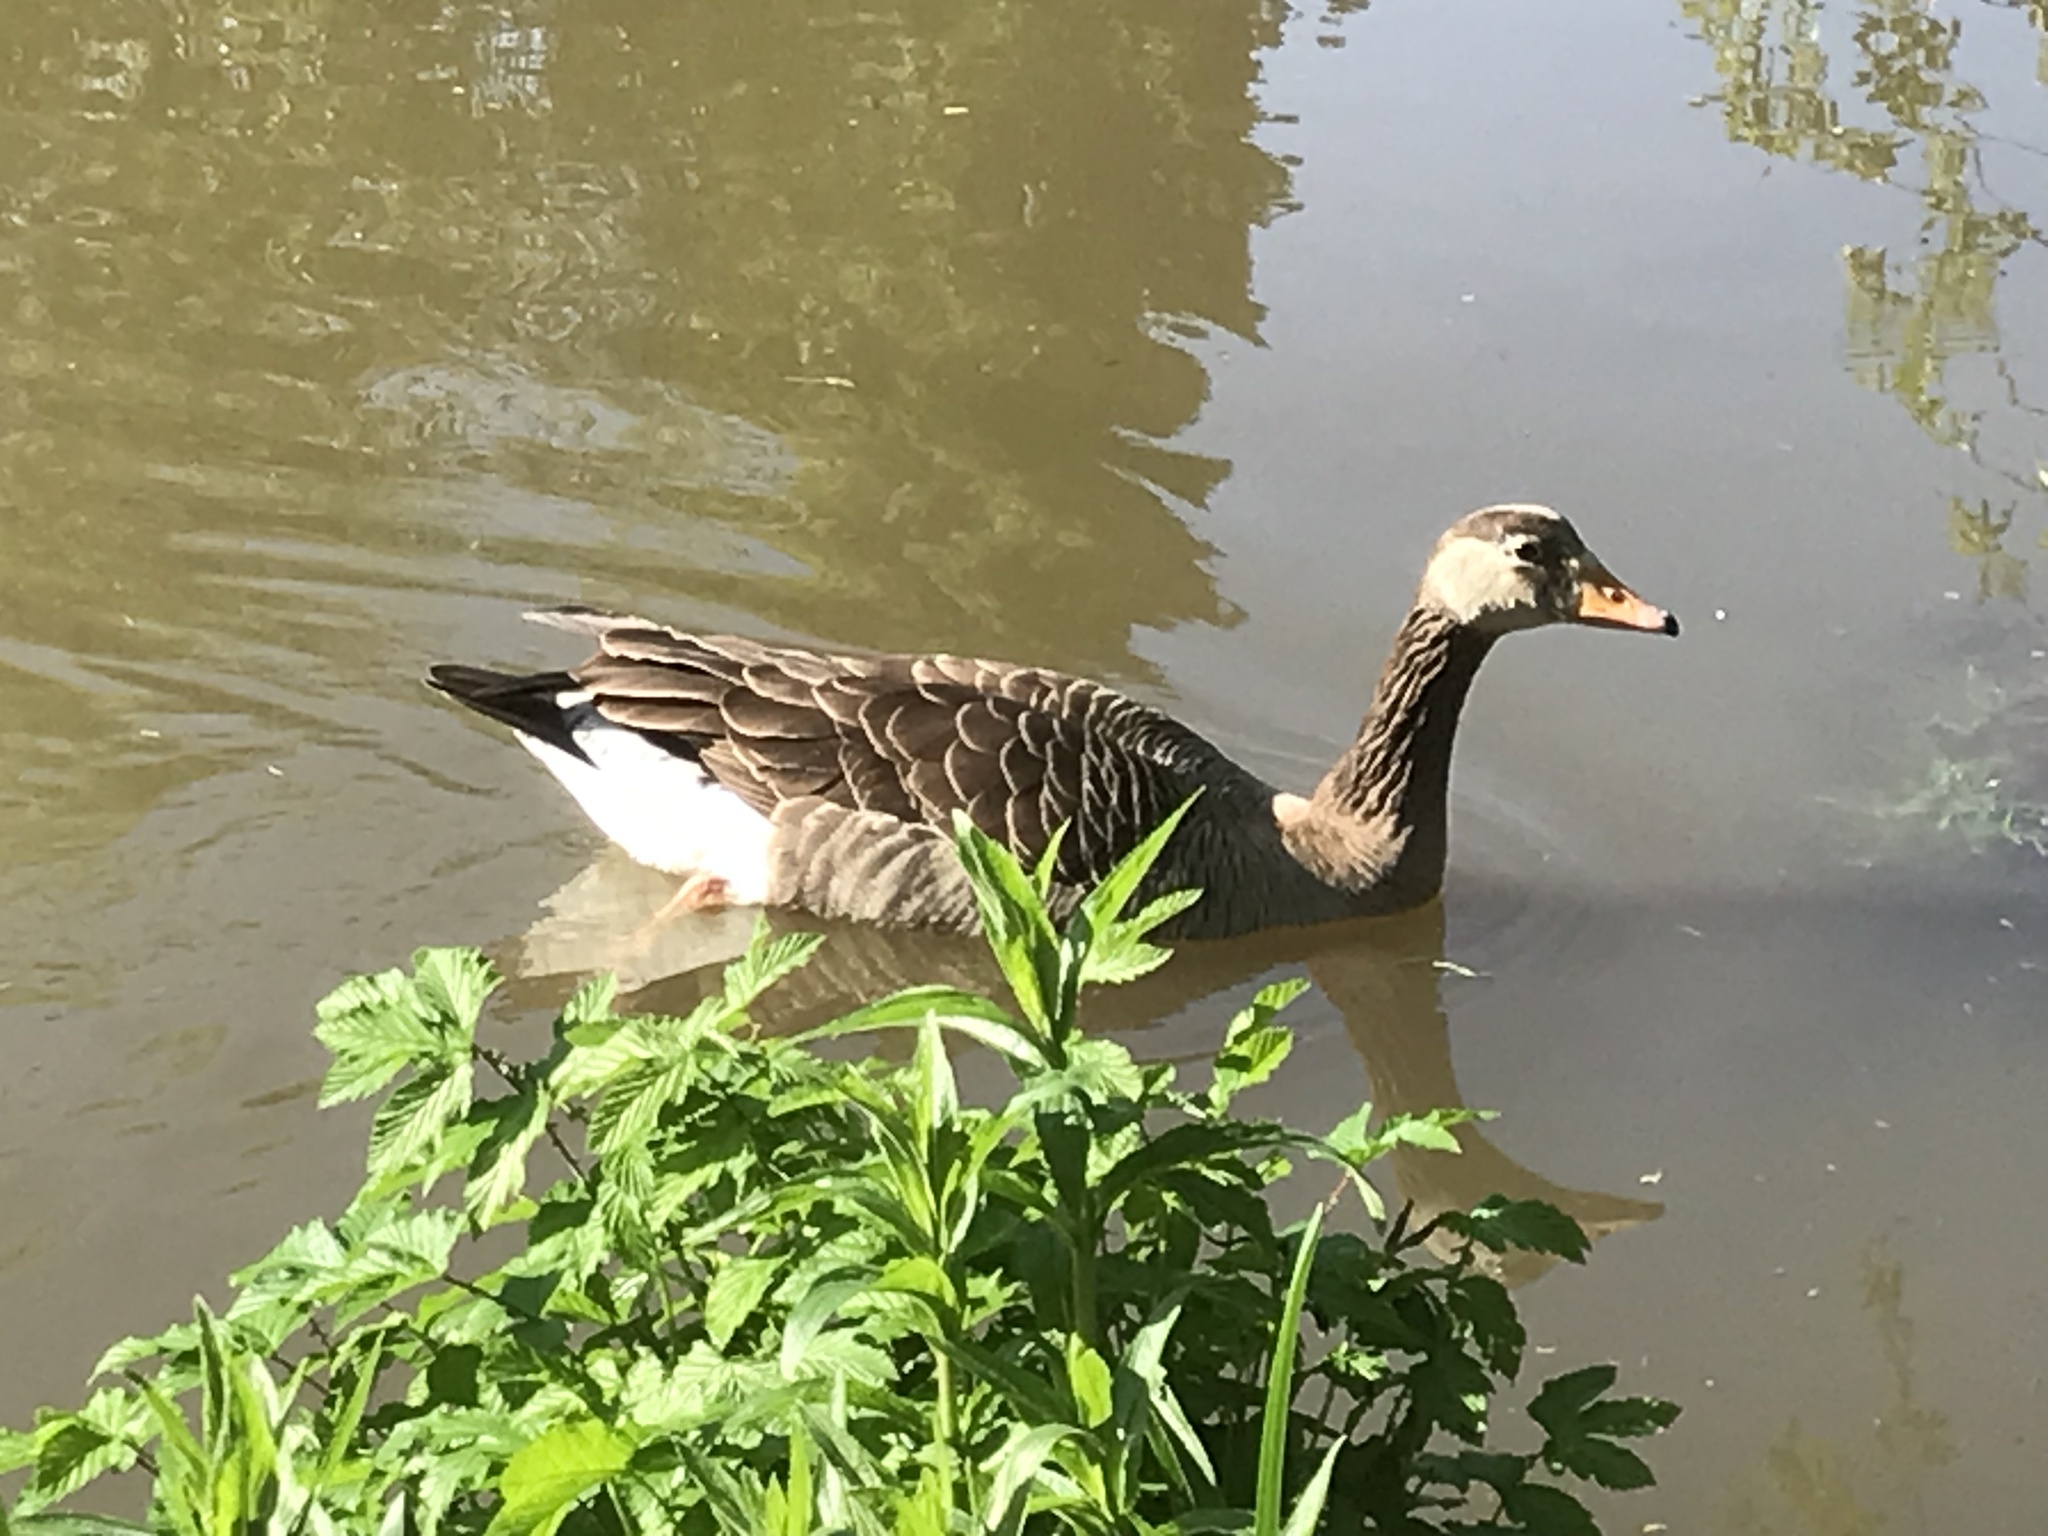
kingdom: Animalia
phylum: Chordata
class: Aves
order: Anseriformes
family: Anatidae
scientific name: Anatidae
